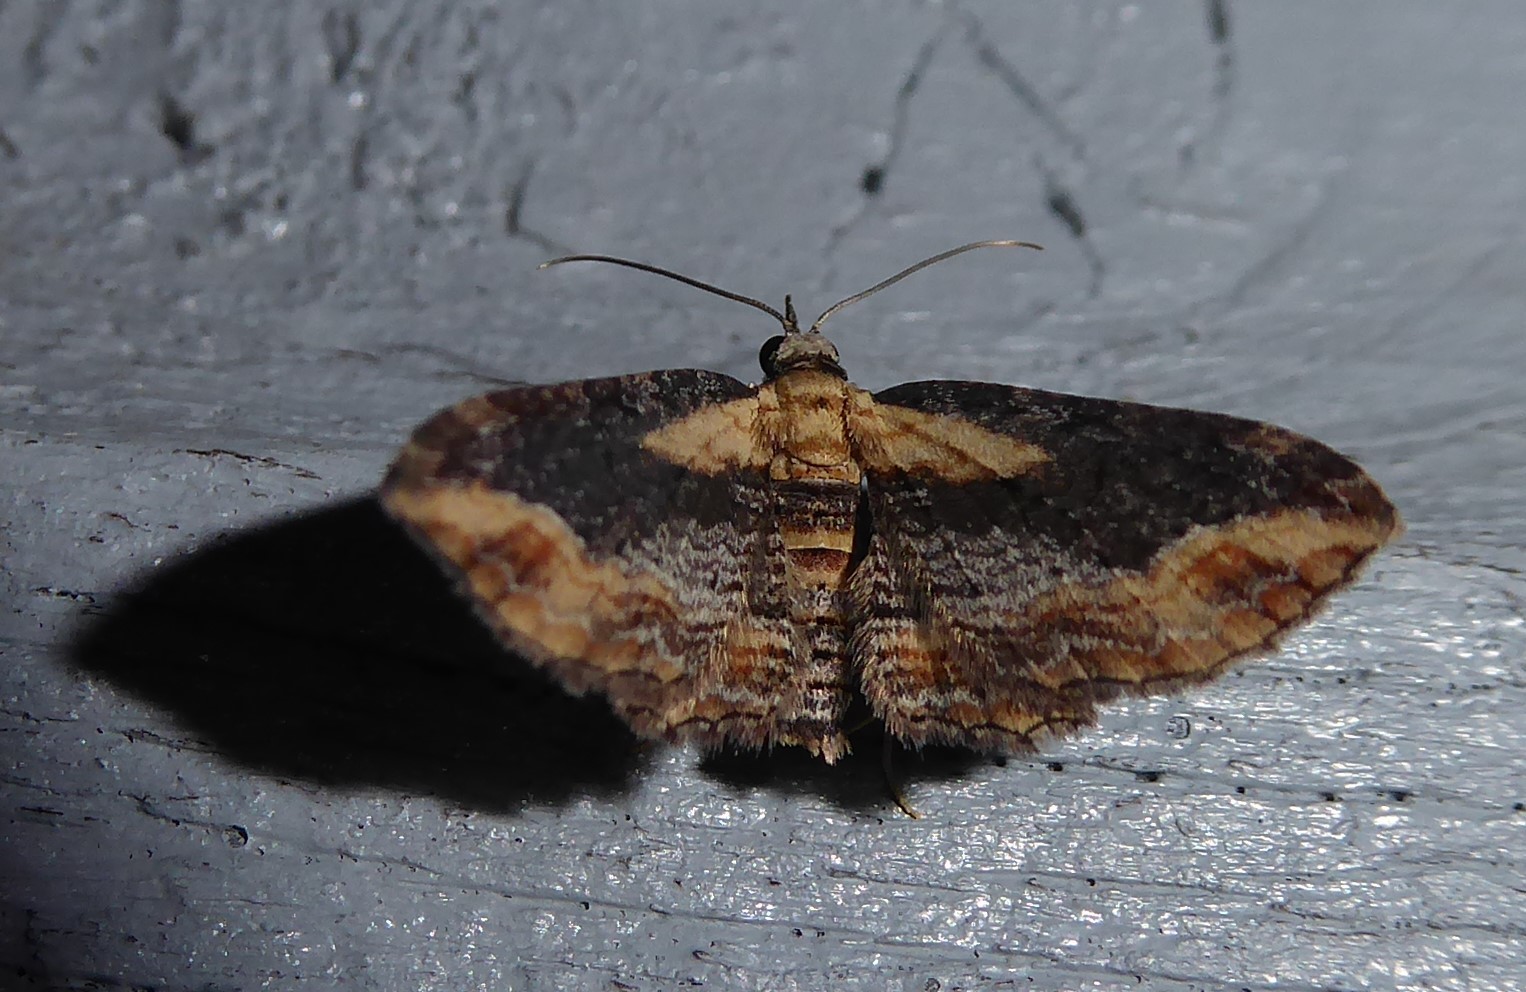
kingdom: Animalia
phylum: Arthropoda
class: Insecta
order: Lepidoptera
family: Geometridae
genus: Chloroclystis
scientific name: Chloroclystis filata
